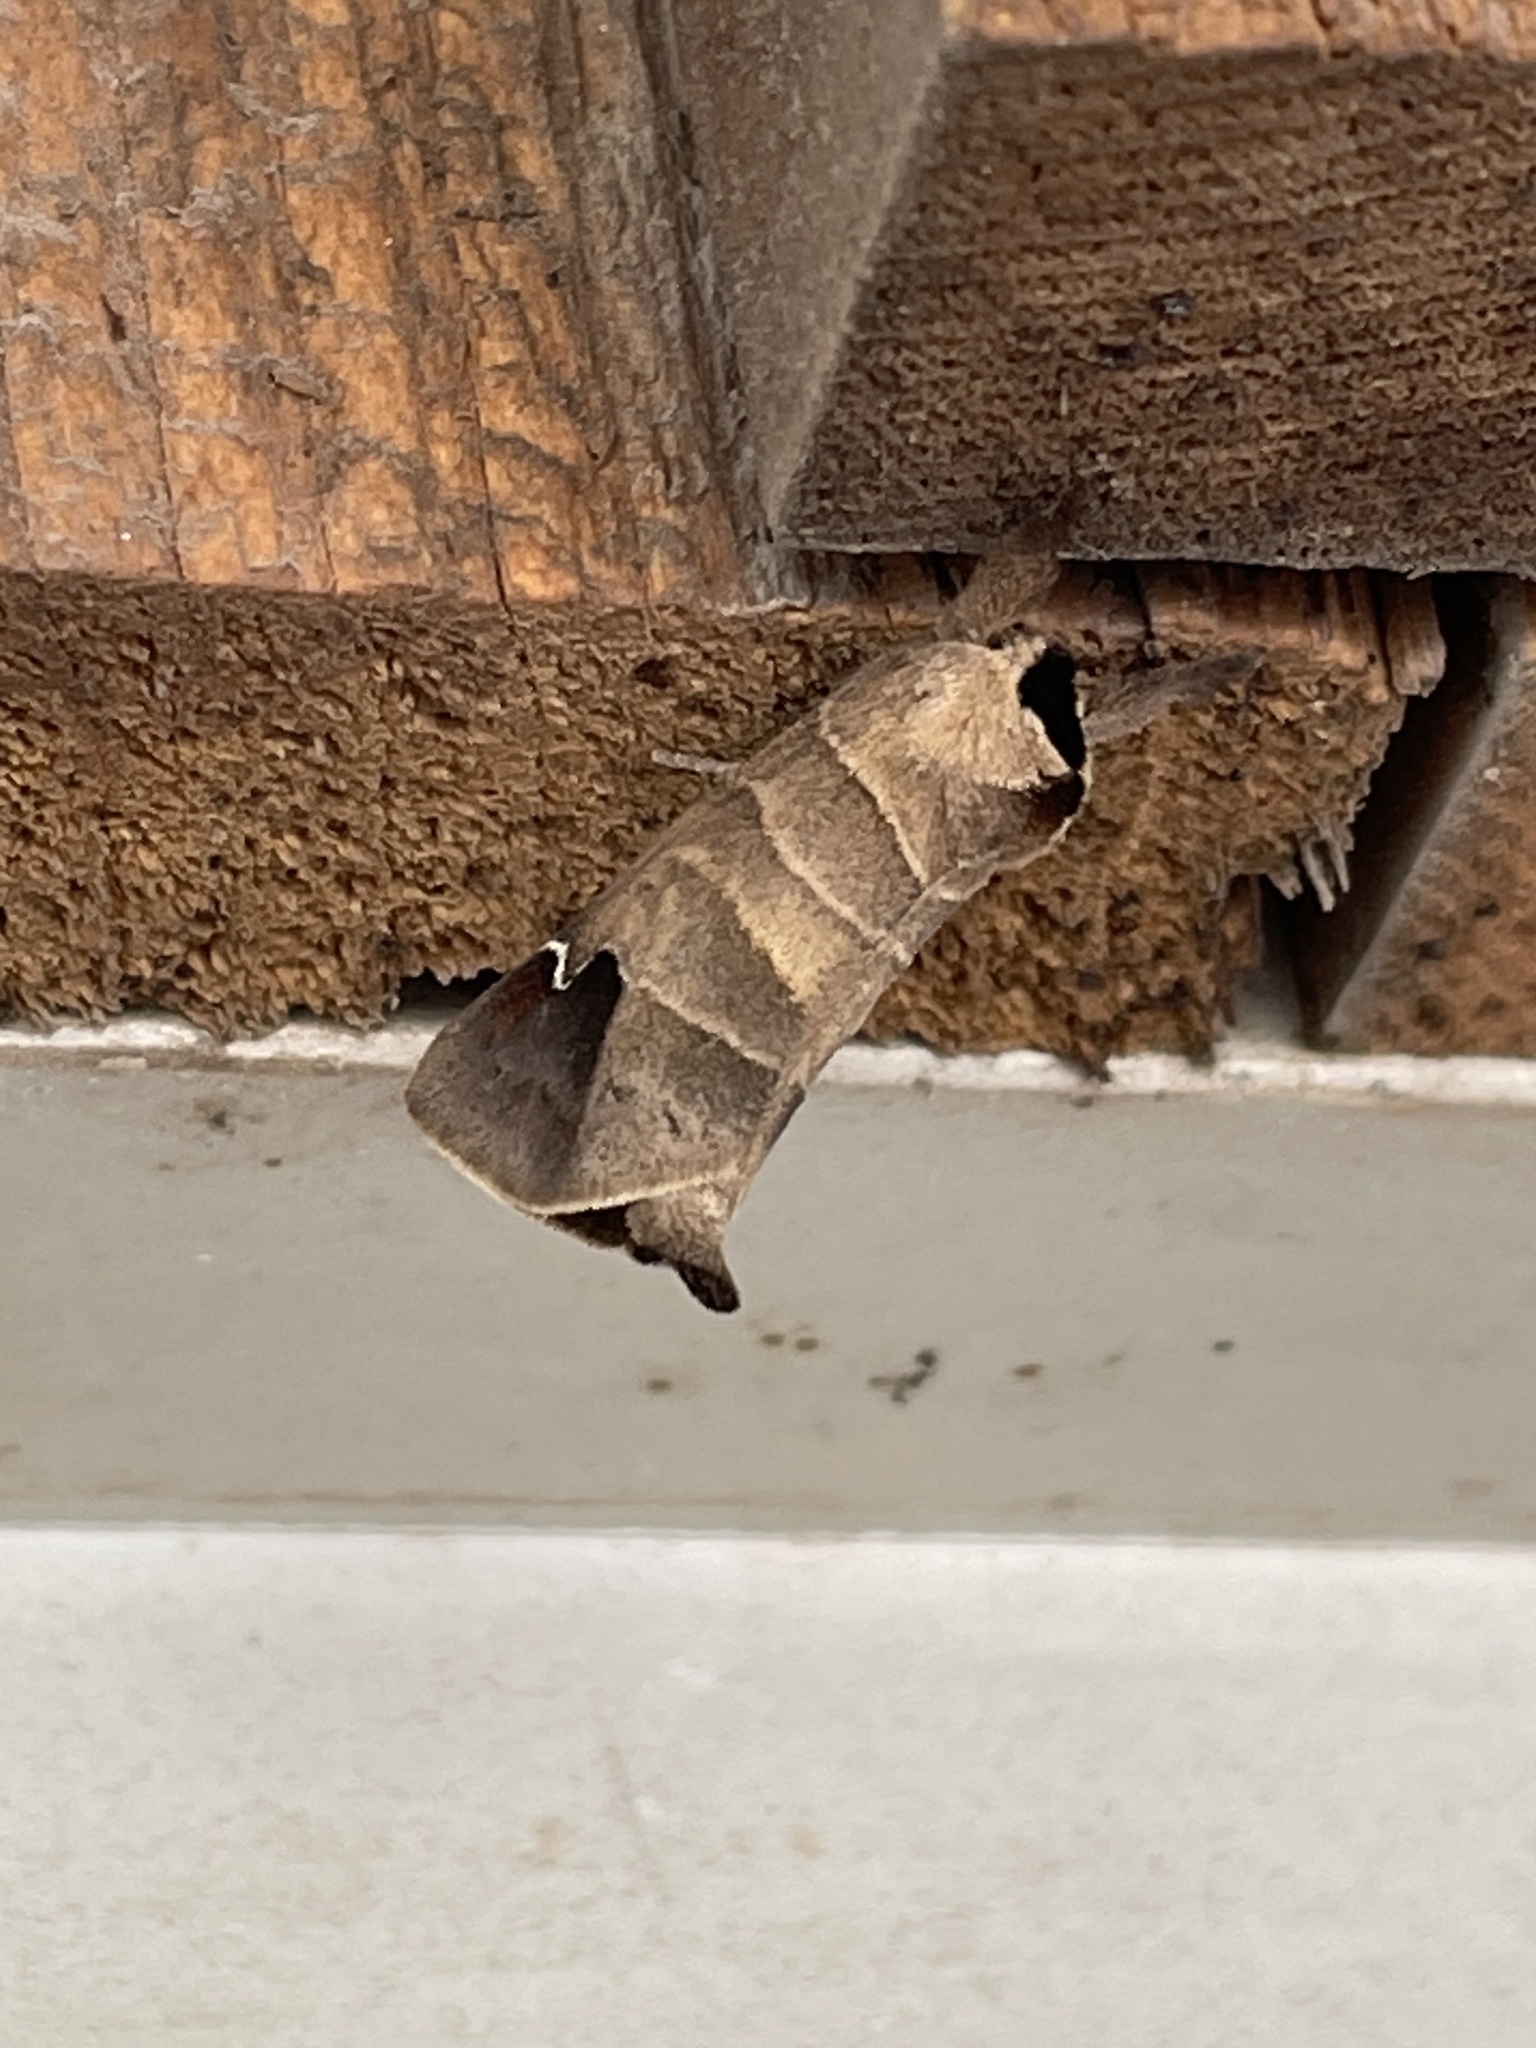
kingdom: Animalia
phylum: Arthropoda
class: Insecta
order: Lepidoptera
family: Notodontidae
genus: Clostera
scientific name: Clostera albosigma
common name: Sigmoid prominent
